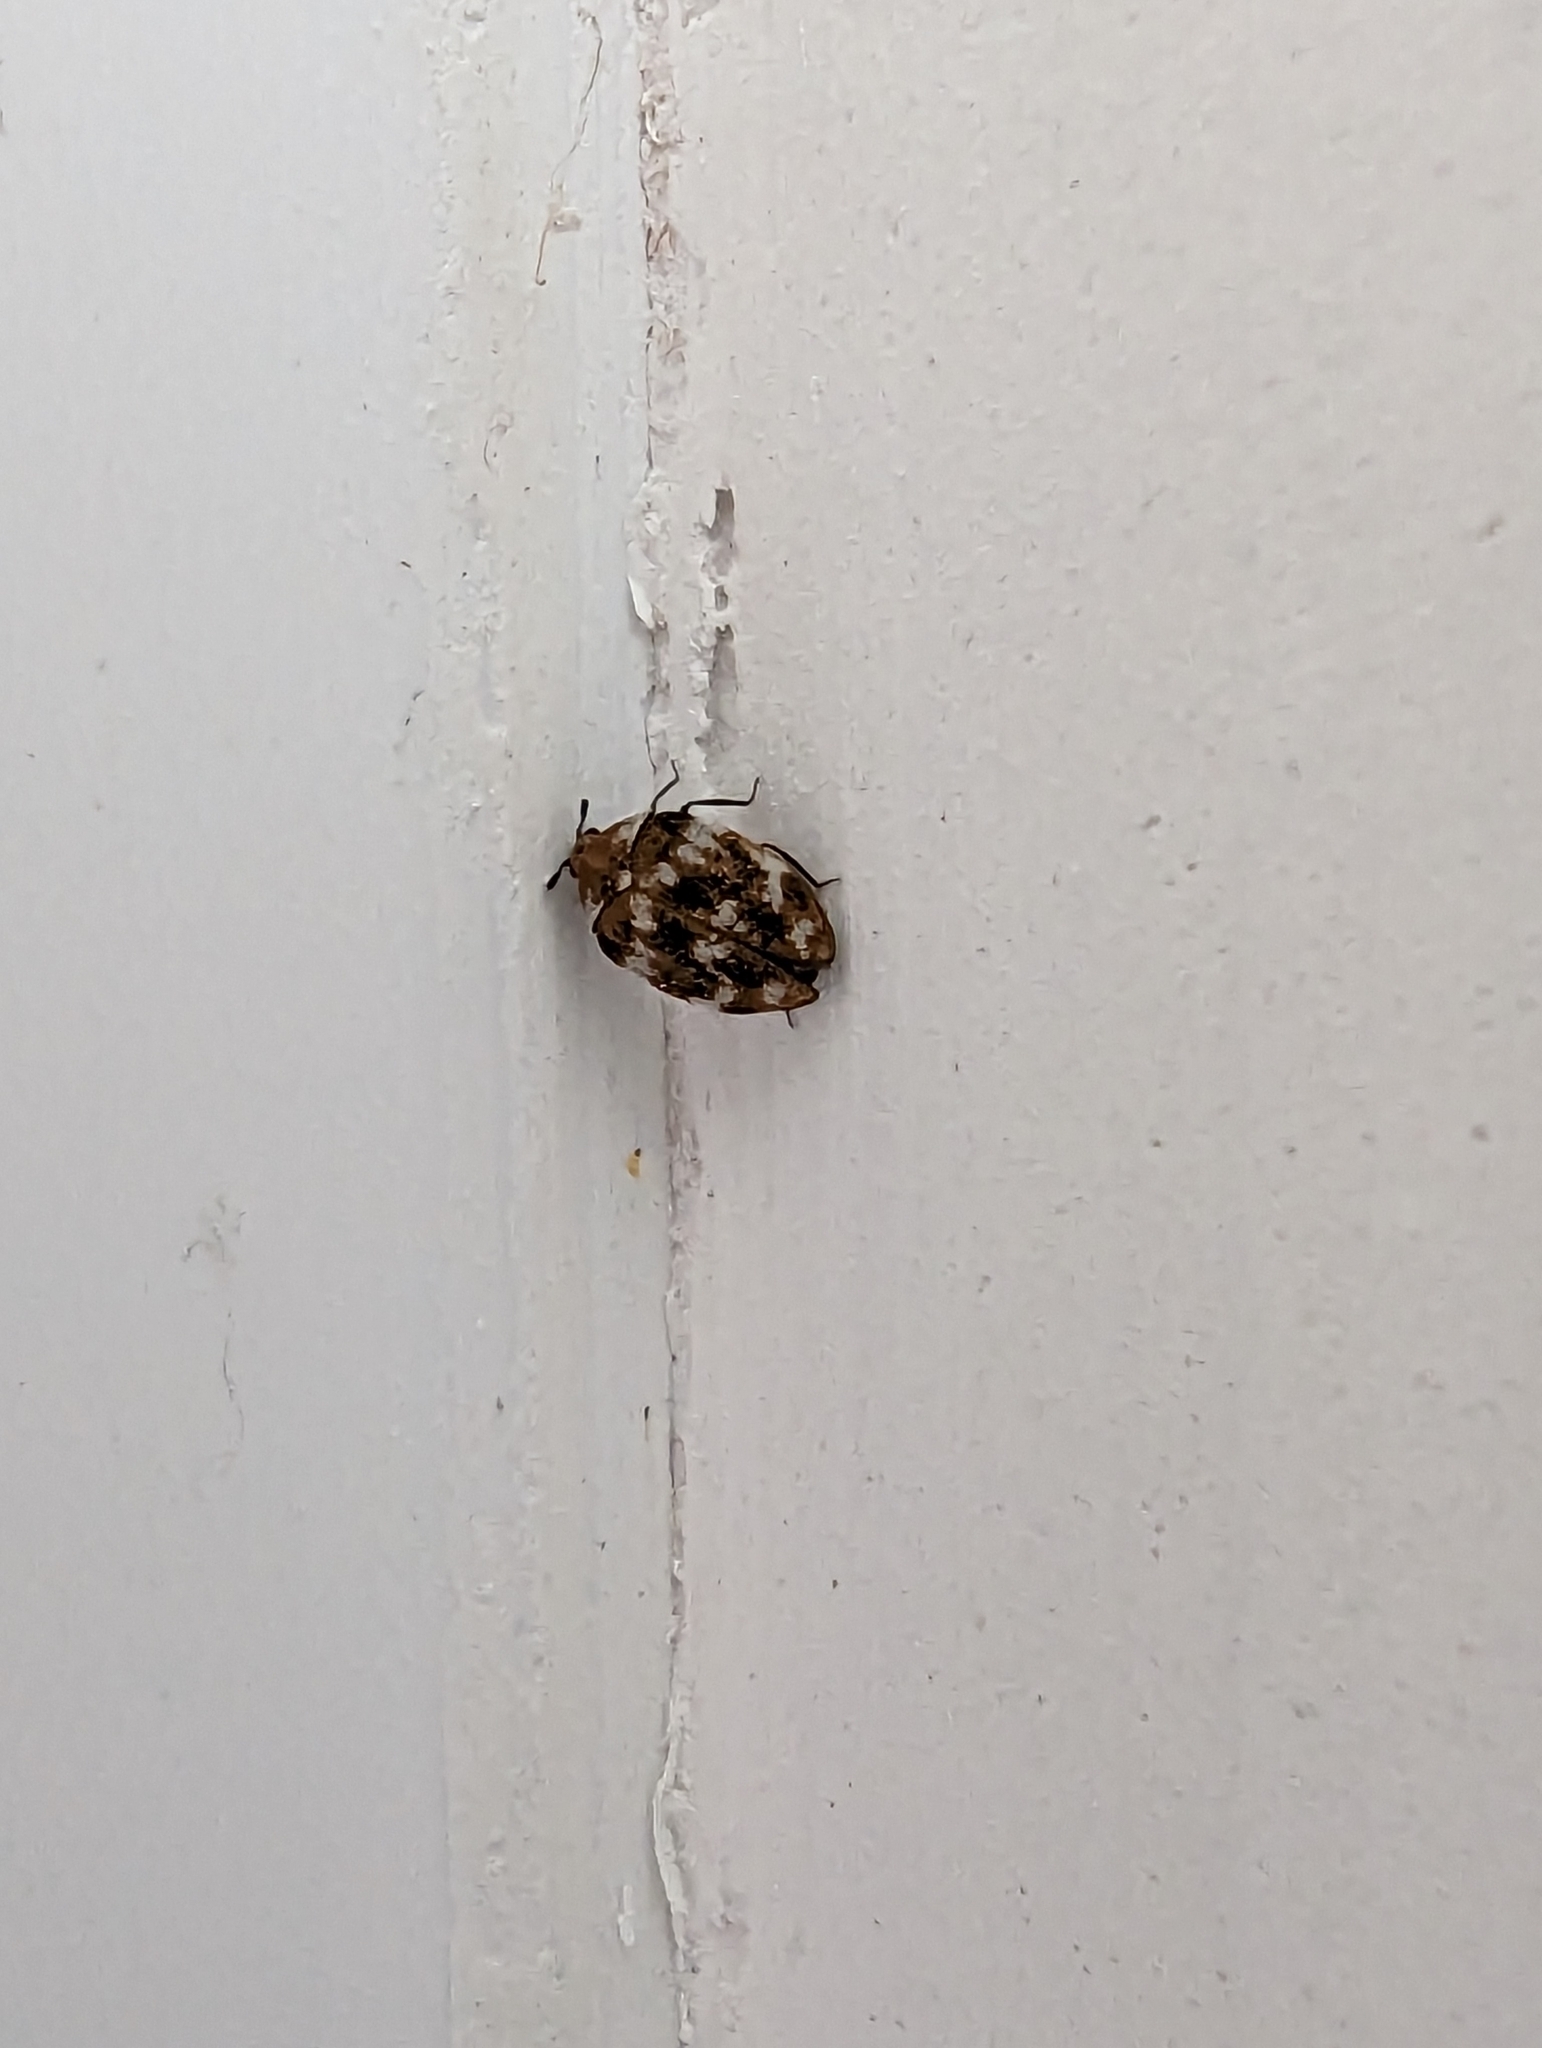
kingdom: Animalia
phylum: Arthropoda
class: Insecta
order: Coleoptera
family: Dermestidae
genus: Anthrenus
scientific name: Anthrenus verbasci
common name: Varied carpet beetle
